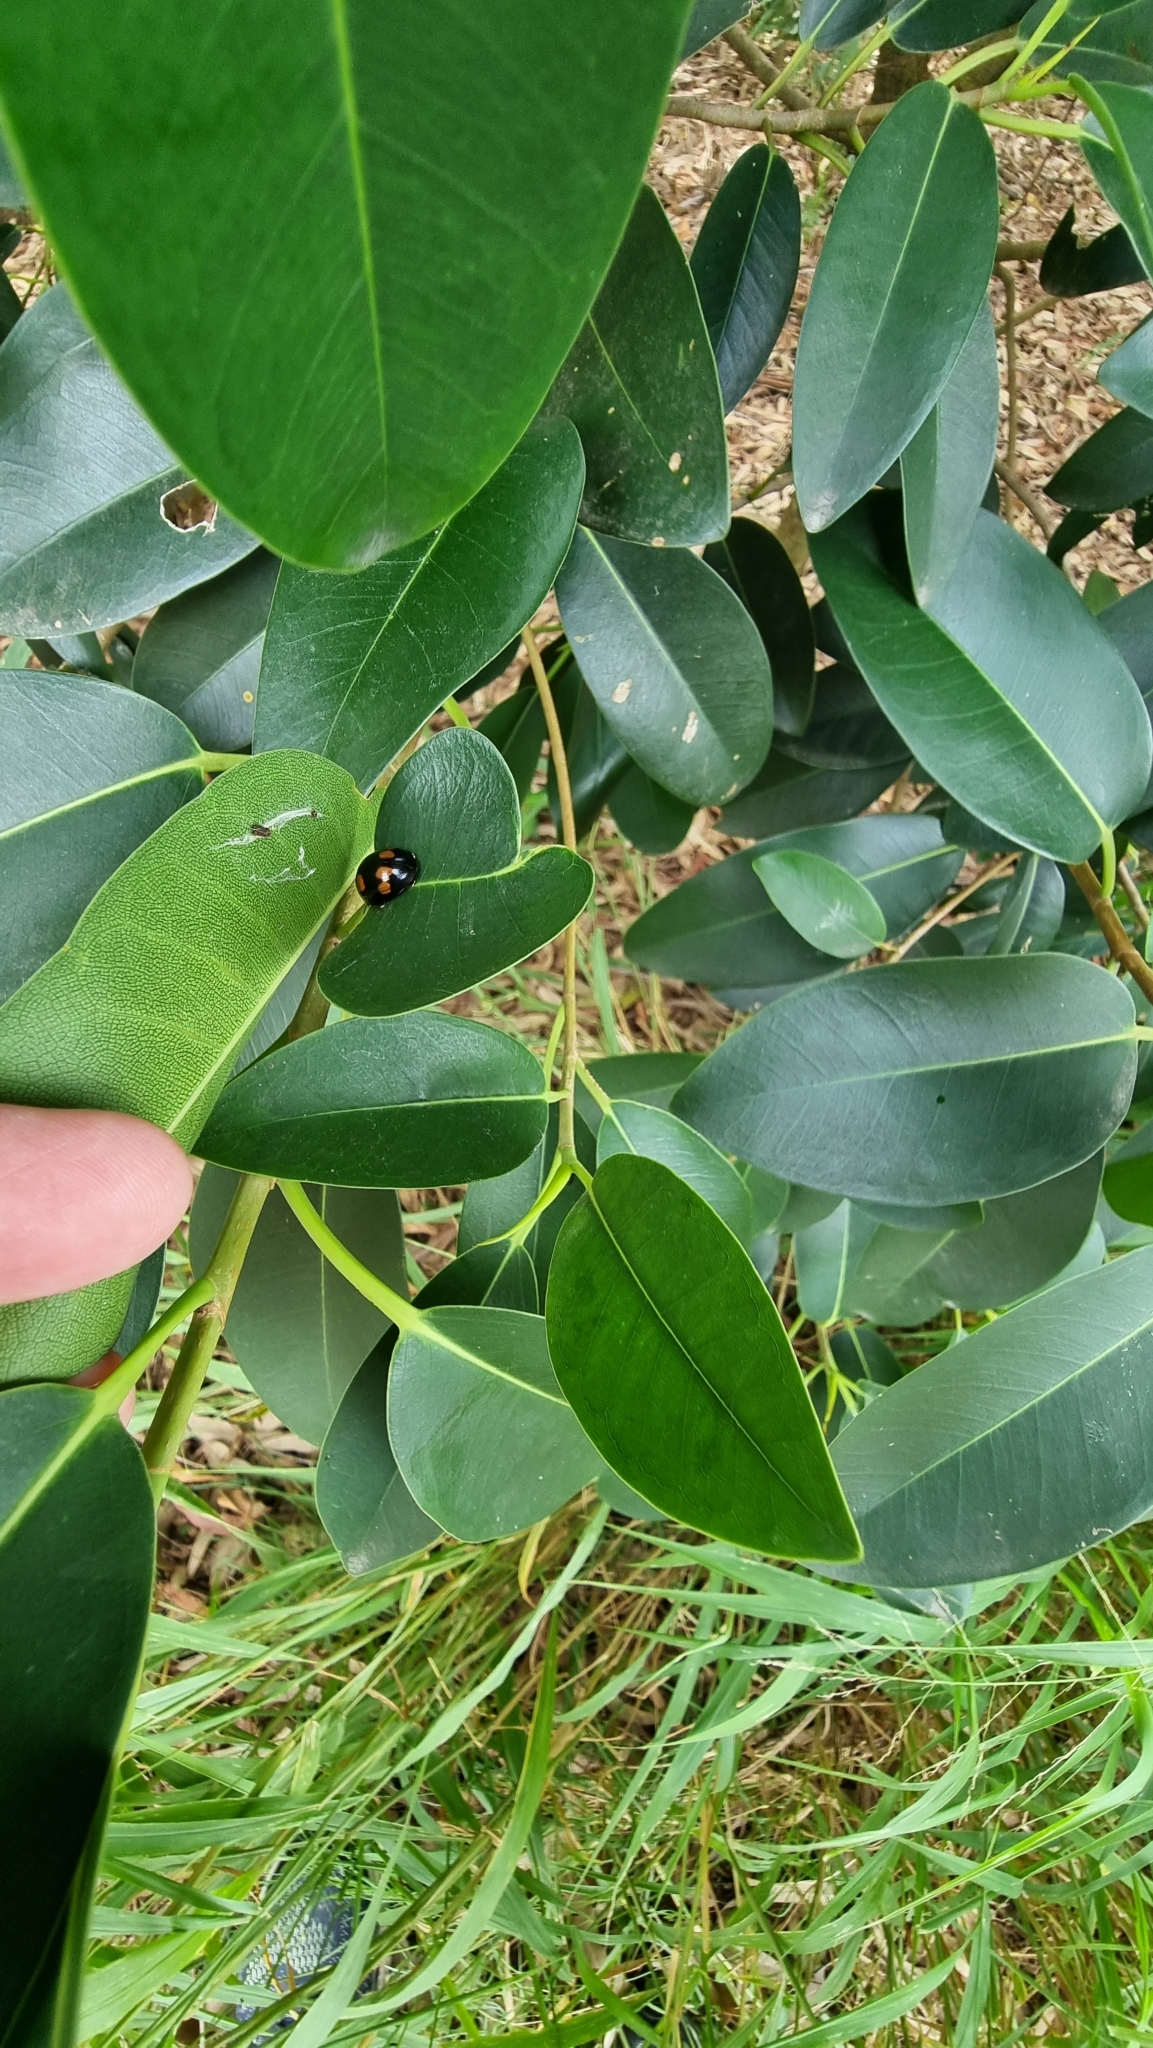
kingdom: Animalia
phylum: Arthropoda
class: Insecta
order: Coleoptera
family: Chrysomelidae
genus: Paropsisterna
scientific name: Paropsisterna
